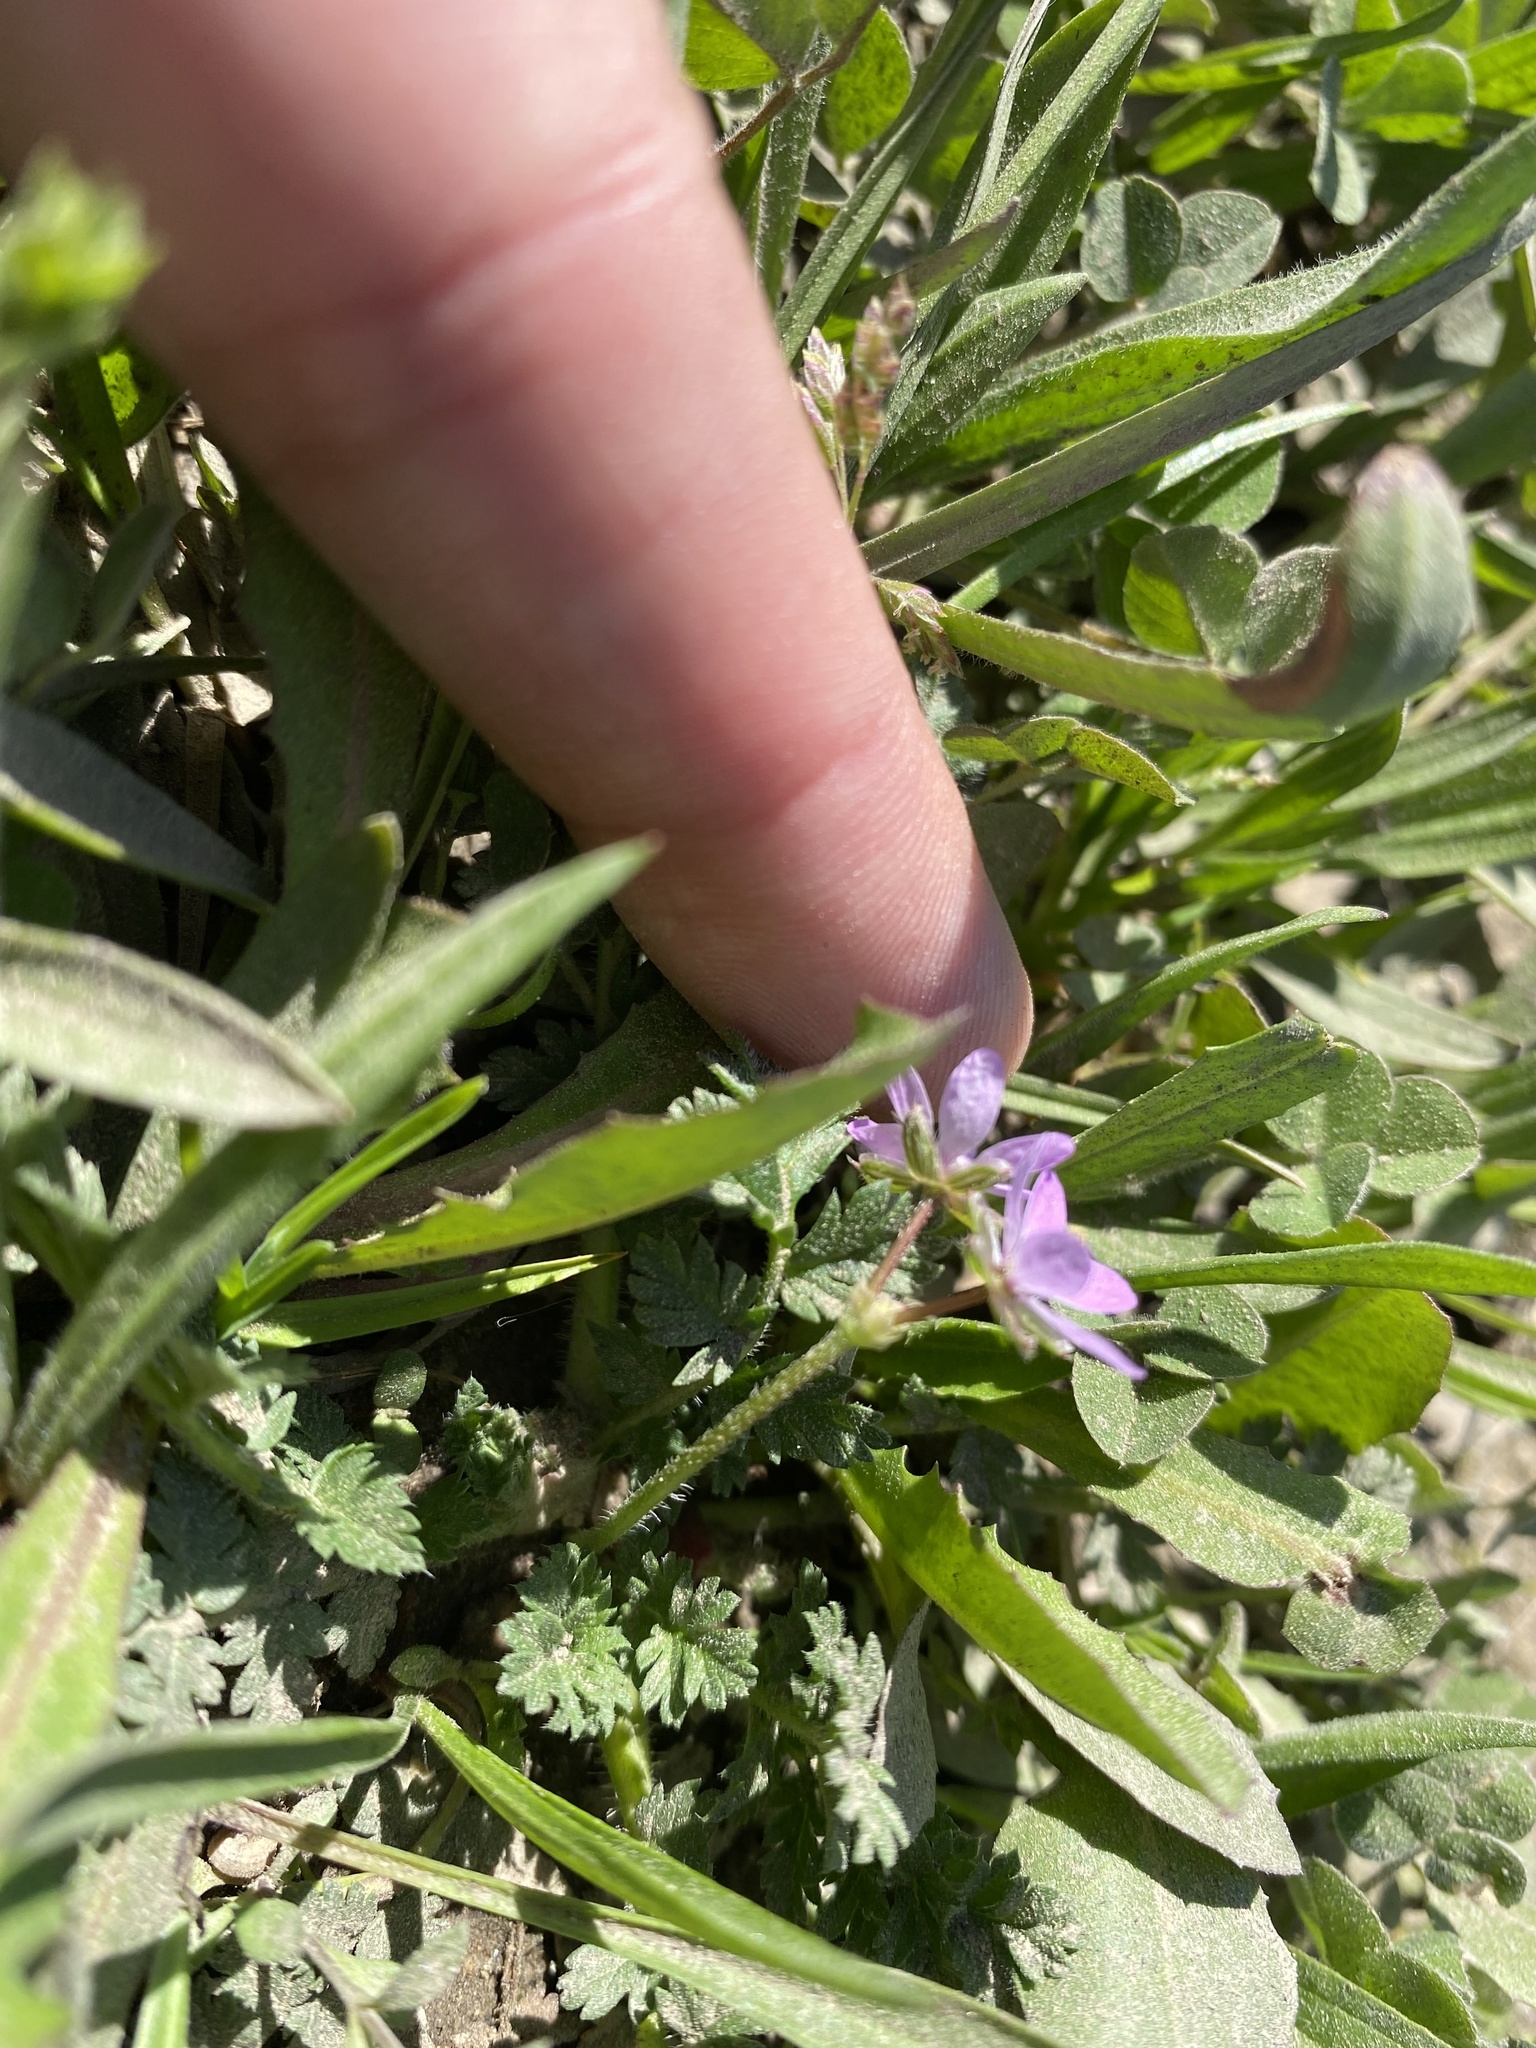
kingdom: Plantae
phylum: Tracheophyta
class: Magnoliopsida
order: Geraniales
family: Geraniaceae
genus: Erodium
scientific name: Erodium cicutarium
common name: Common stork's-bill
